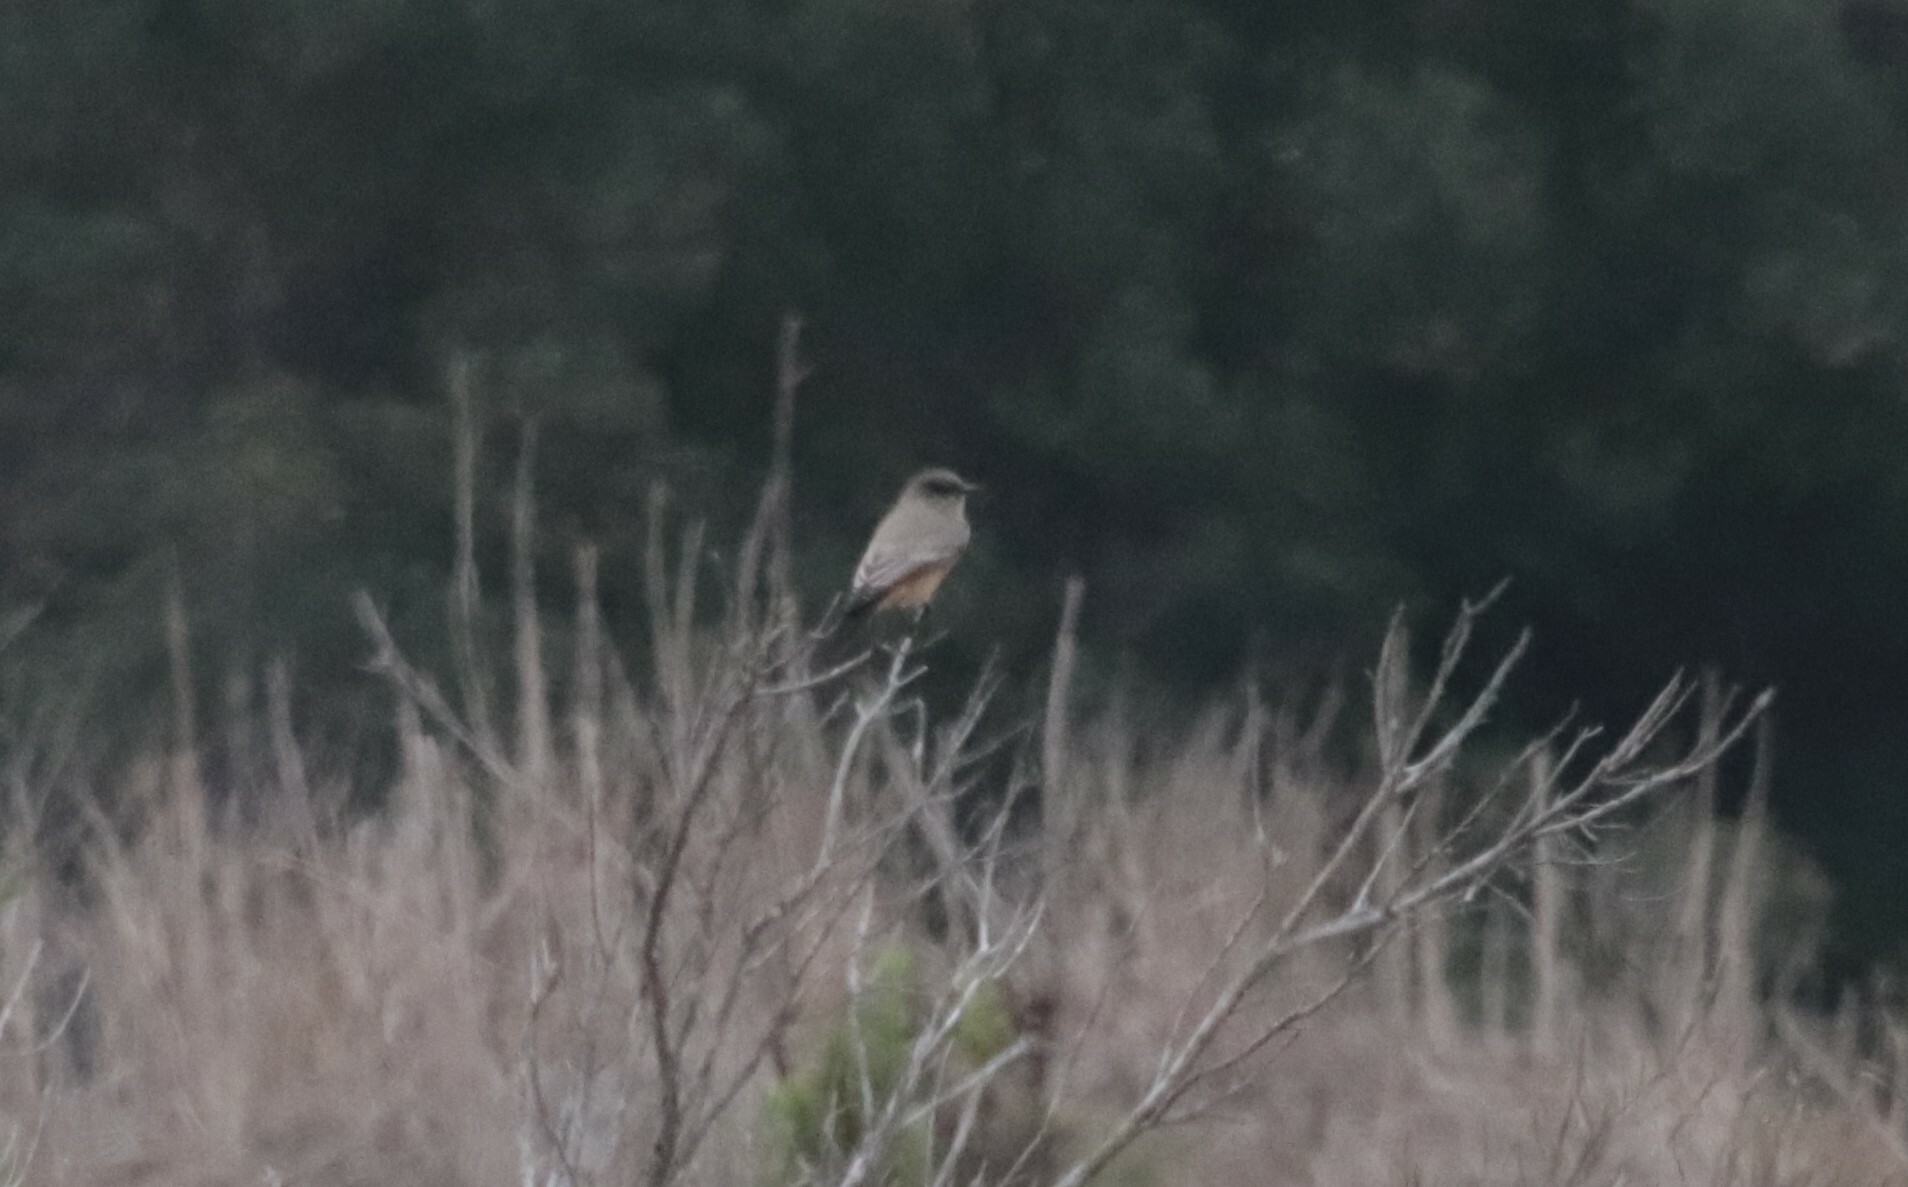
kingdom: Animalia
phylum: Chordata
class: Aves
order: Passeriformes
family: Tyrannidae
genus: Sayornis
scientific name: Sayornis saya
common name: Say's phoebe
